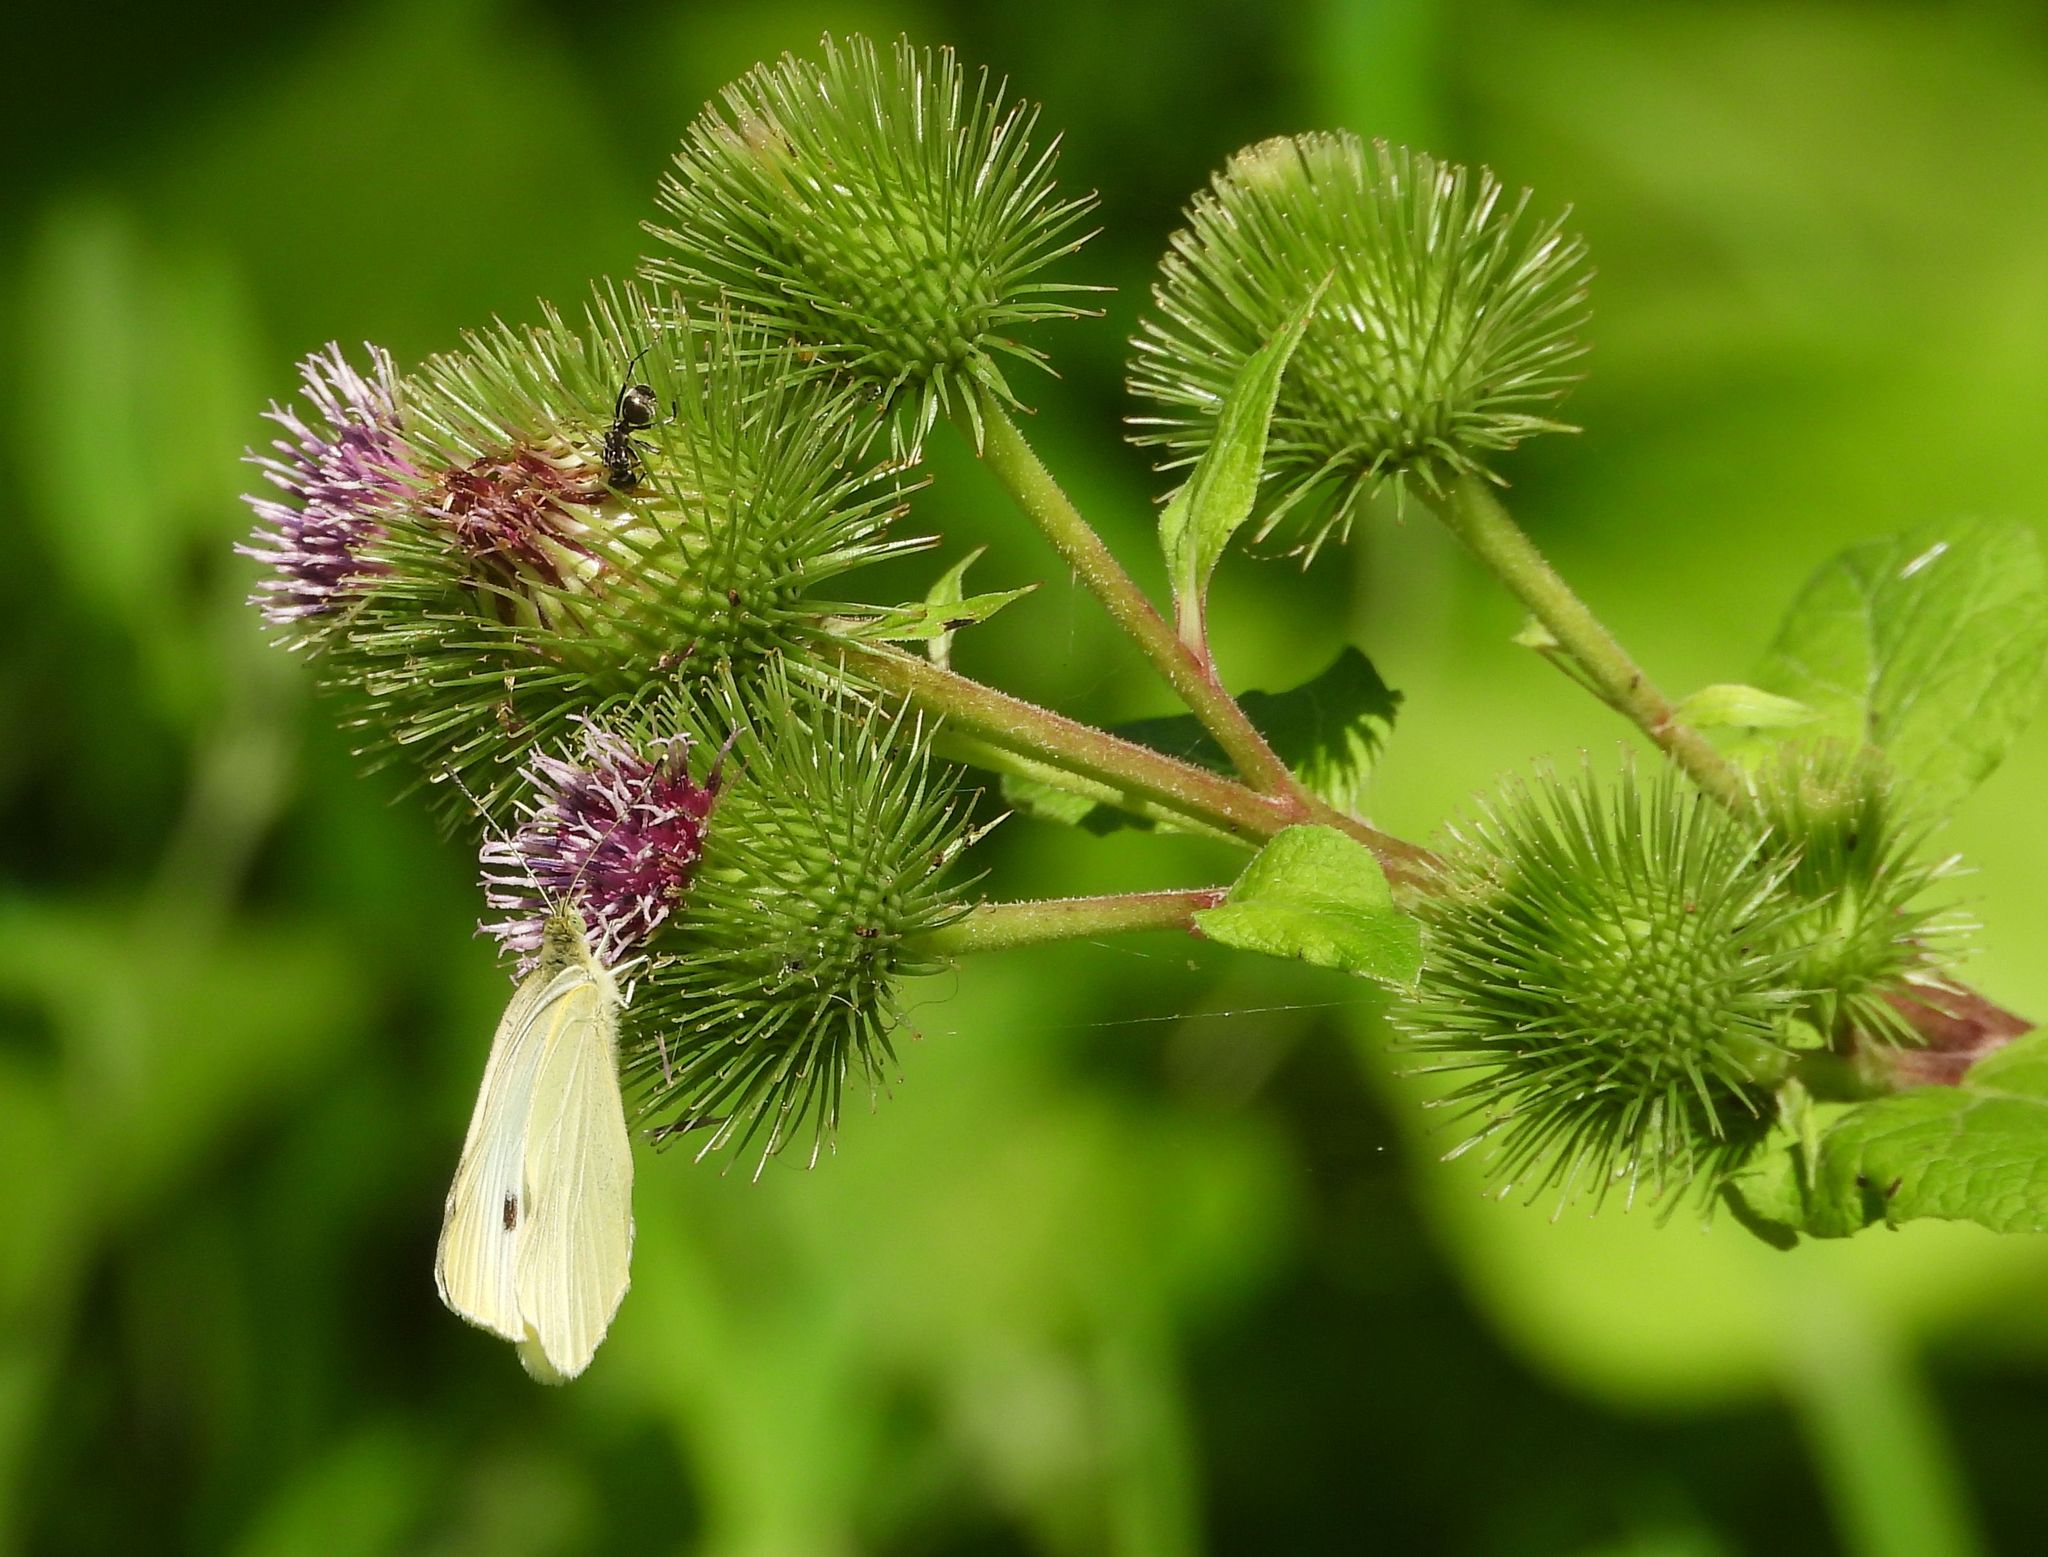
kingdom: Animalia
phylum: Arthropoda
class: Insecta
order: Lepidoptera
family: Pieridae
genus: Pieris
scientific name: Pieris rapae
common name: Small white
